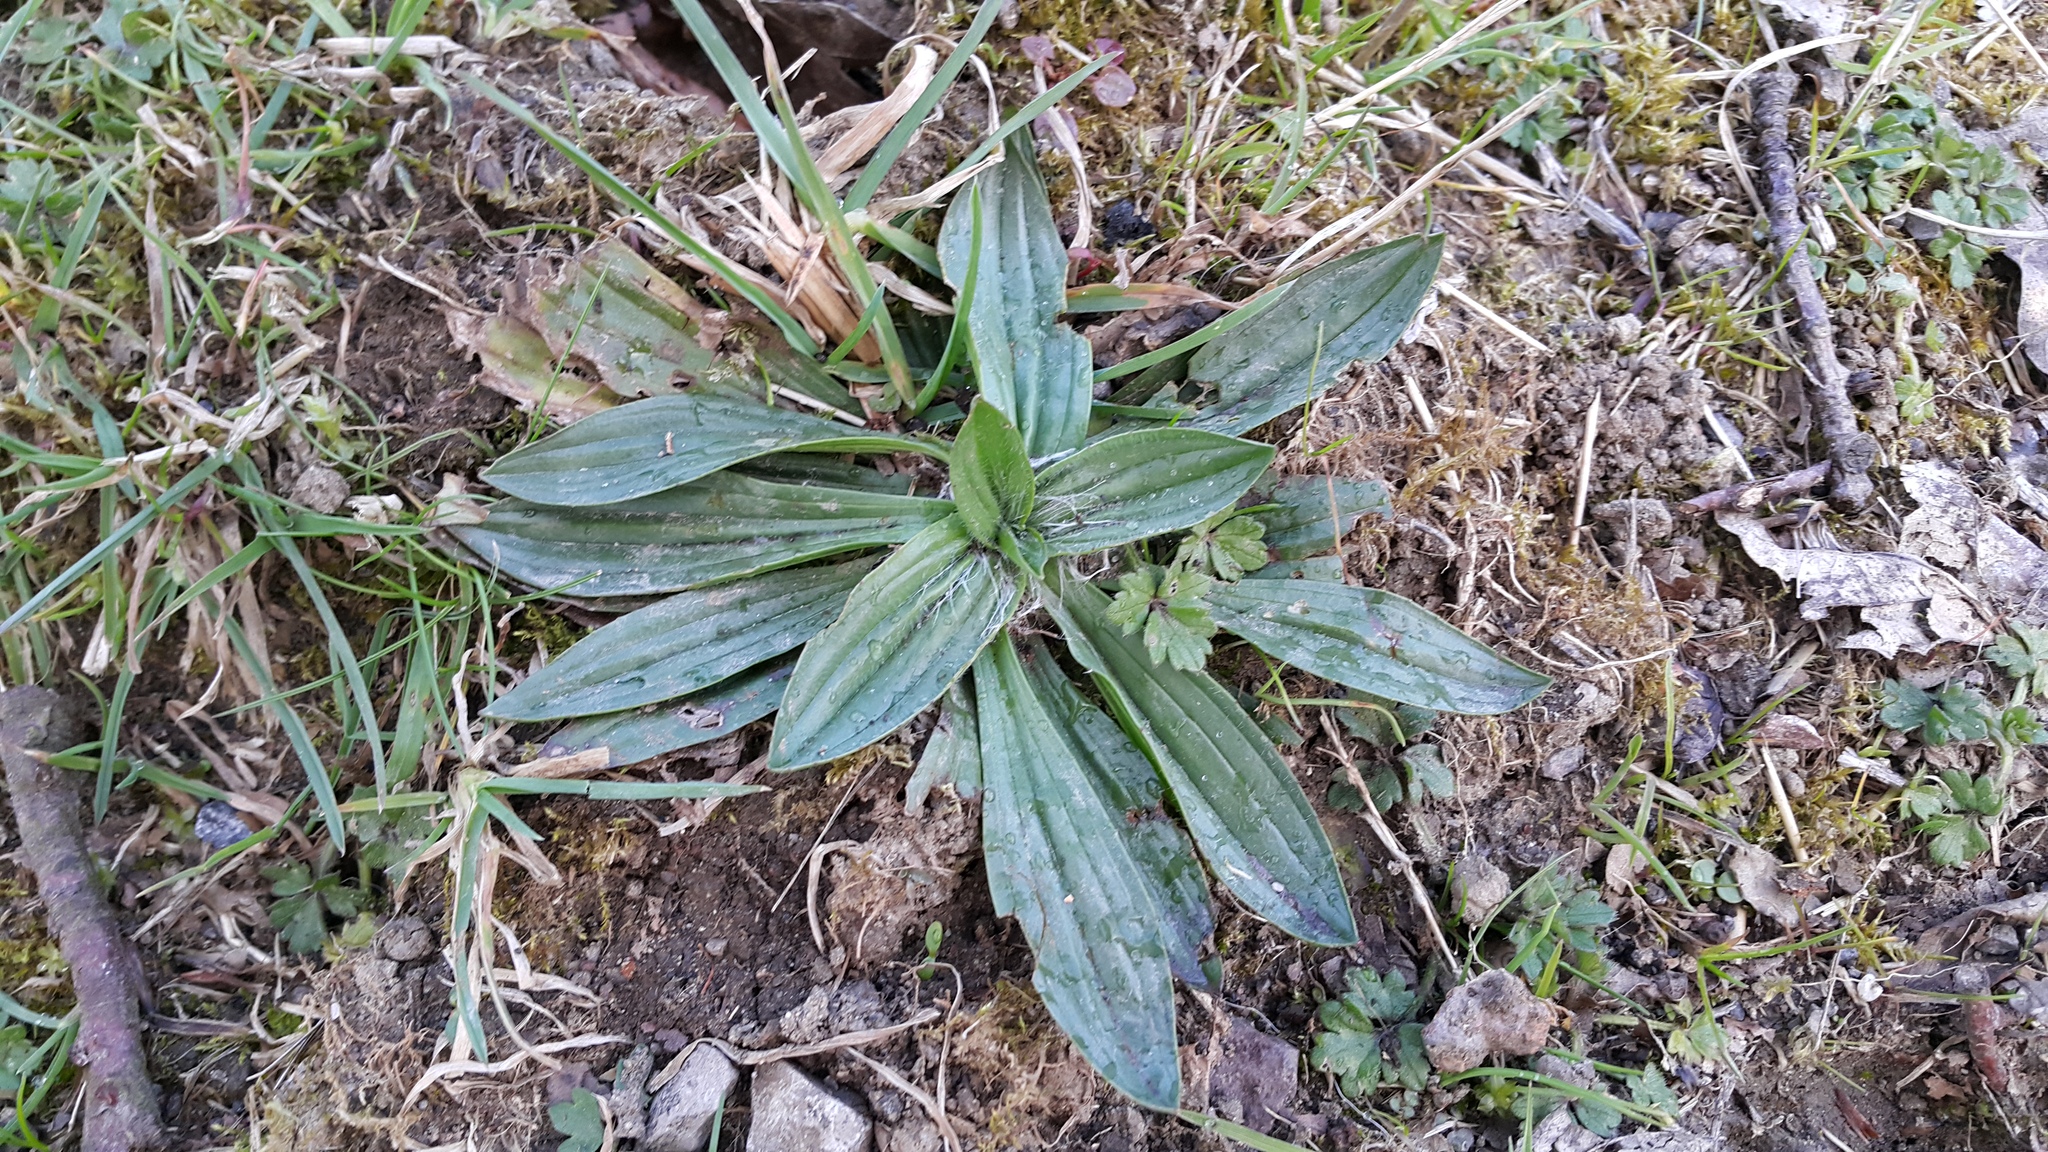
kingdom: Plantae
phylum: Tracheophyta
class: Magnoliopsida
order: Lamiales
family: Plantaginaceae
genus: Plantago
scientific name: Plantago lanceolata
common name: Ribwort plantain
